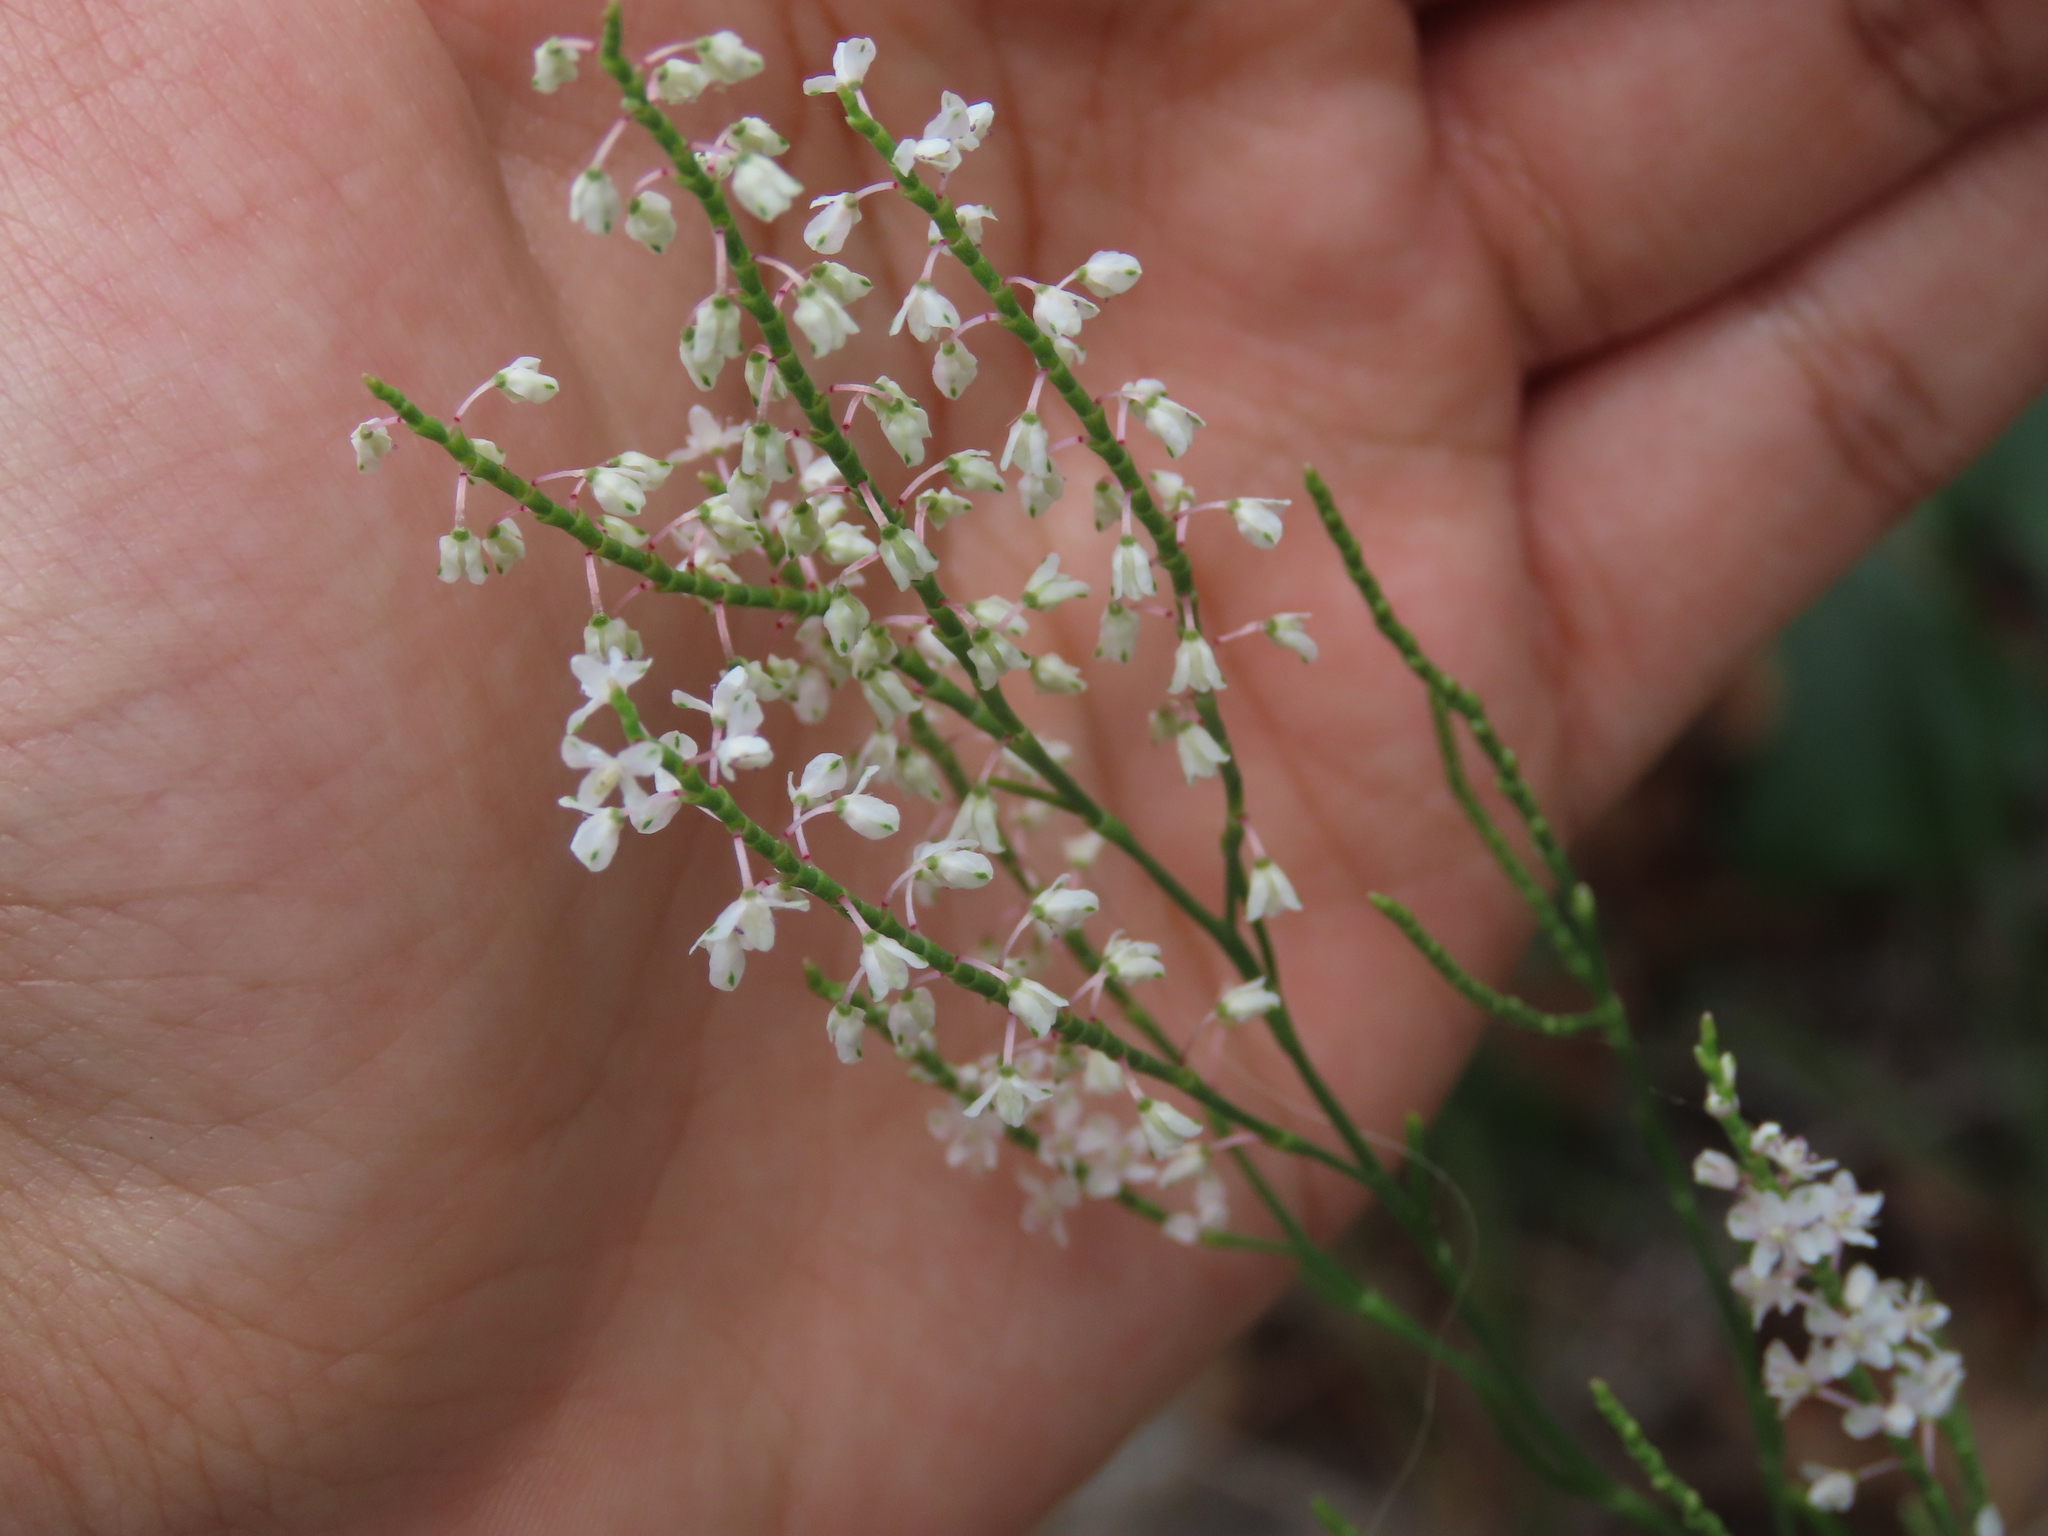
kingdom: Plantae
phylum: Tracheophyta
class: Magnoliopsida
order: Caryophyllales
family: Polygonaceae
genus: Polygonella
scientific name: Polygonella articulata
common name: Coastal jointweed
